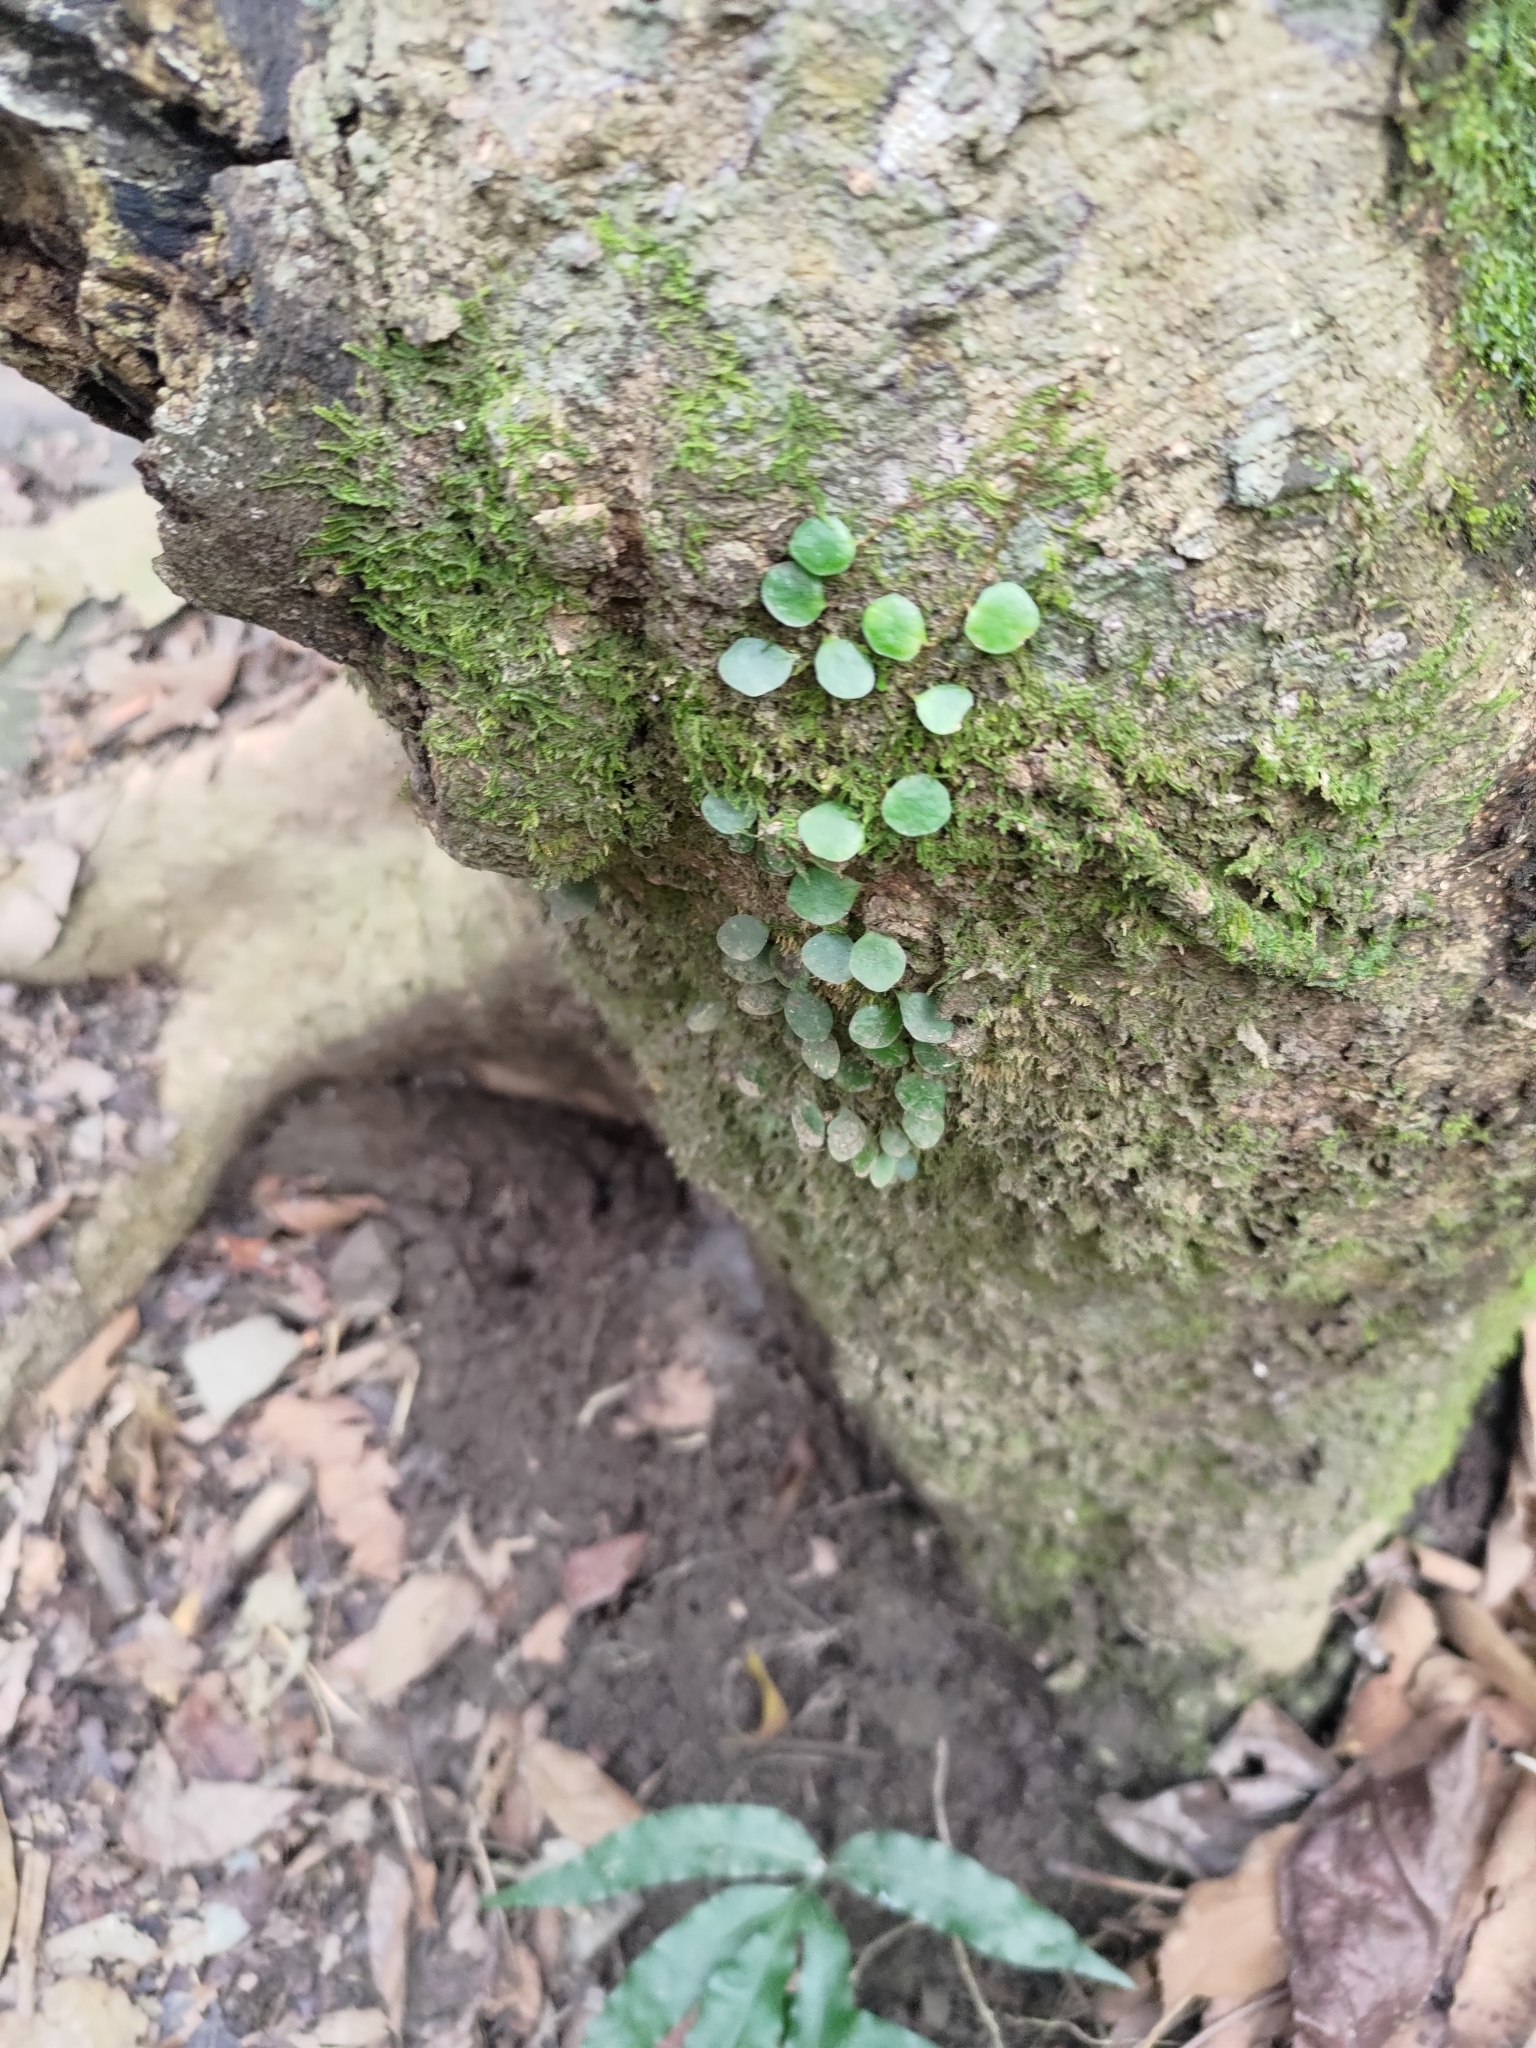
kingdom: Plantae
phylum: Tracheophyta
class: Polypodiopsida
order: Polypodiales
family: Polypodiaceae
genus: Lepisorus
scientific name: Lepisorus microphyllus
